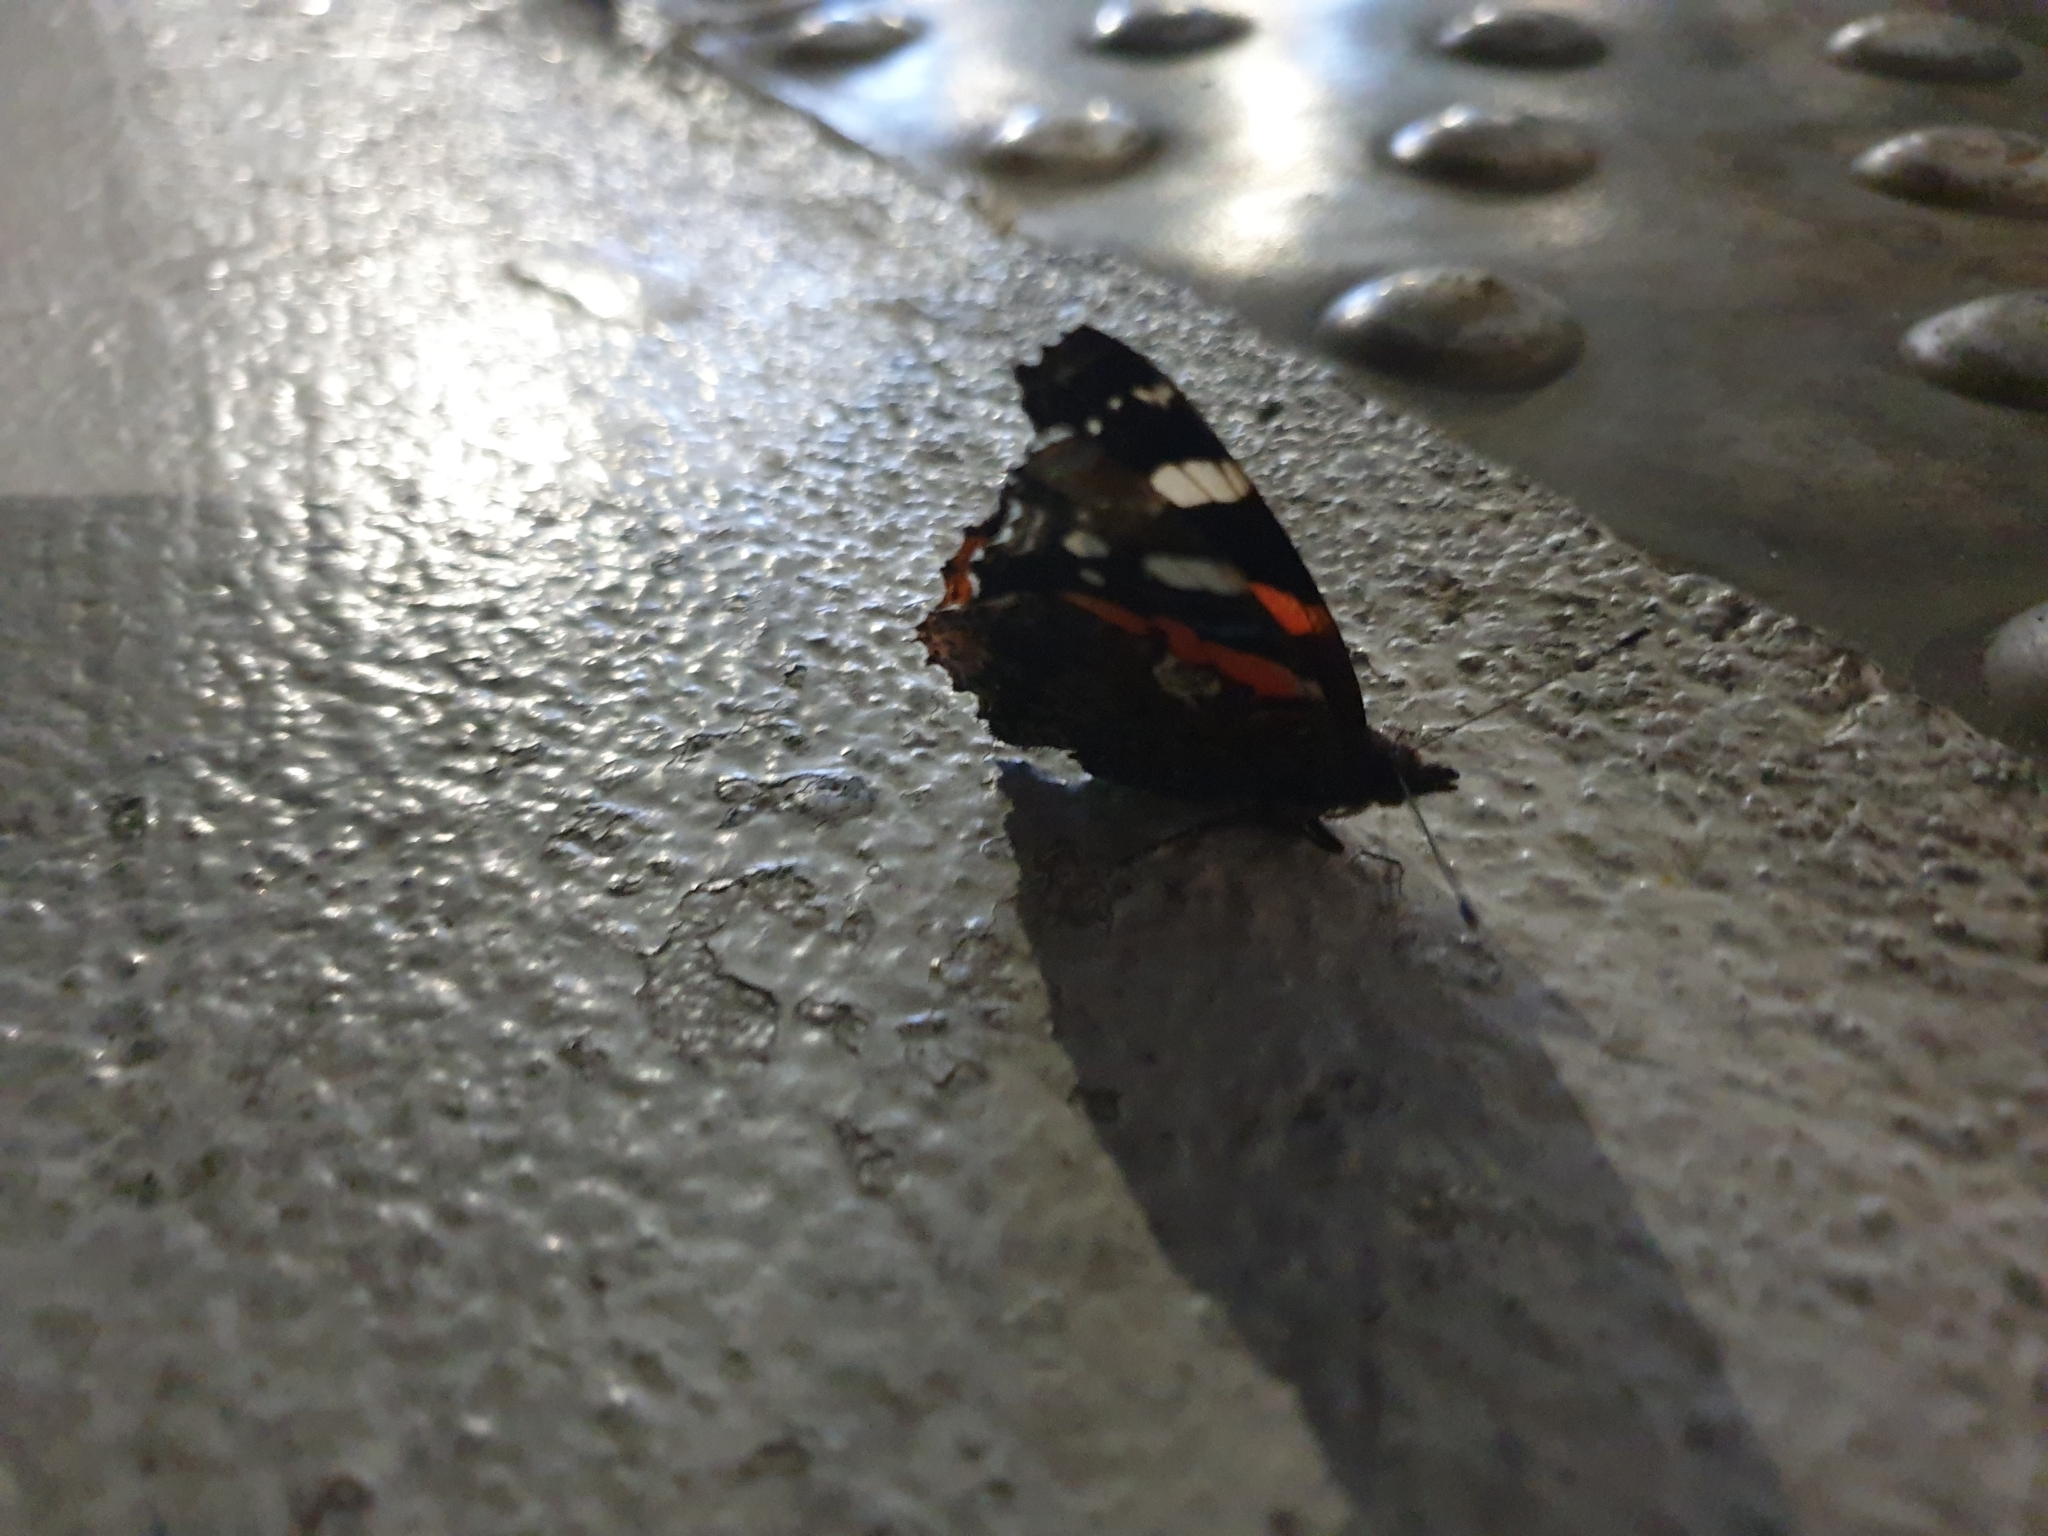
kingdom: Animalia
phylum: Arthropoda
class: Insecta
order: Lepidoptera
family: Nymphalidae
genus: Vanessa
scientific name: Vanessa atalanta
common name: Red admiral
